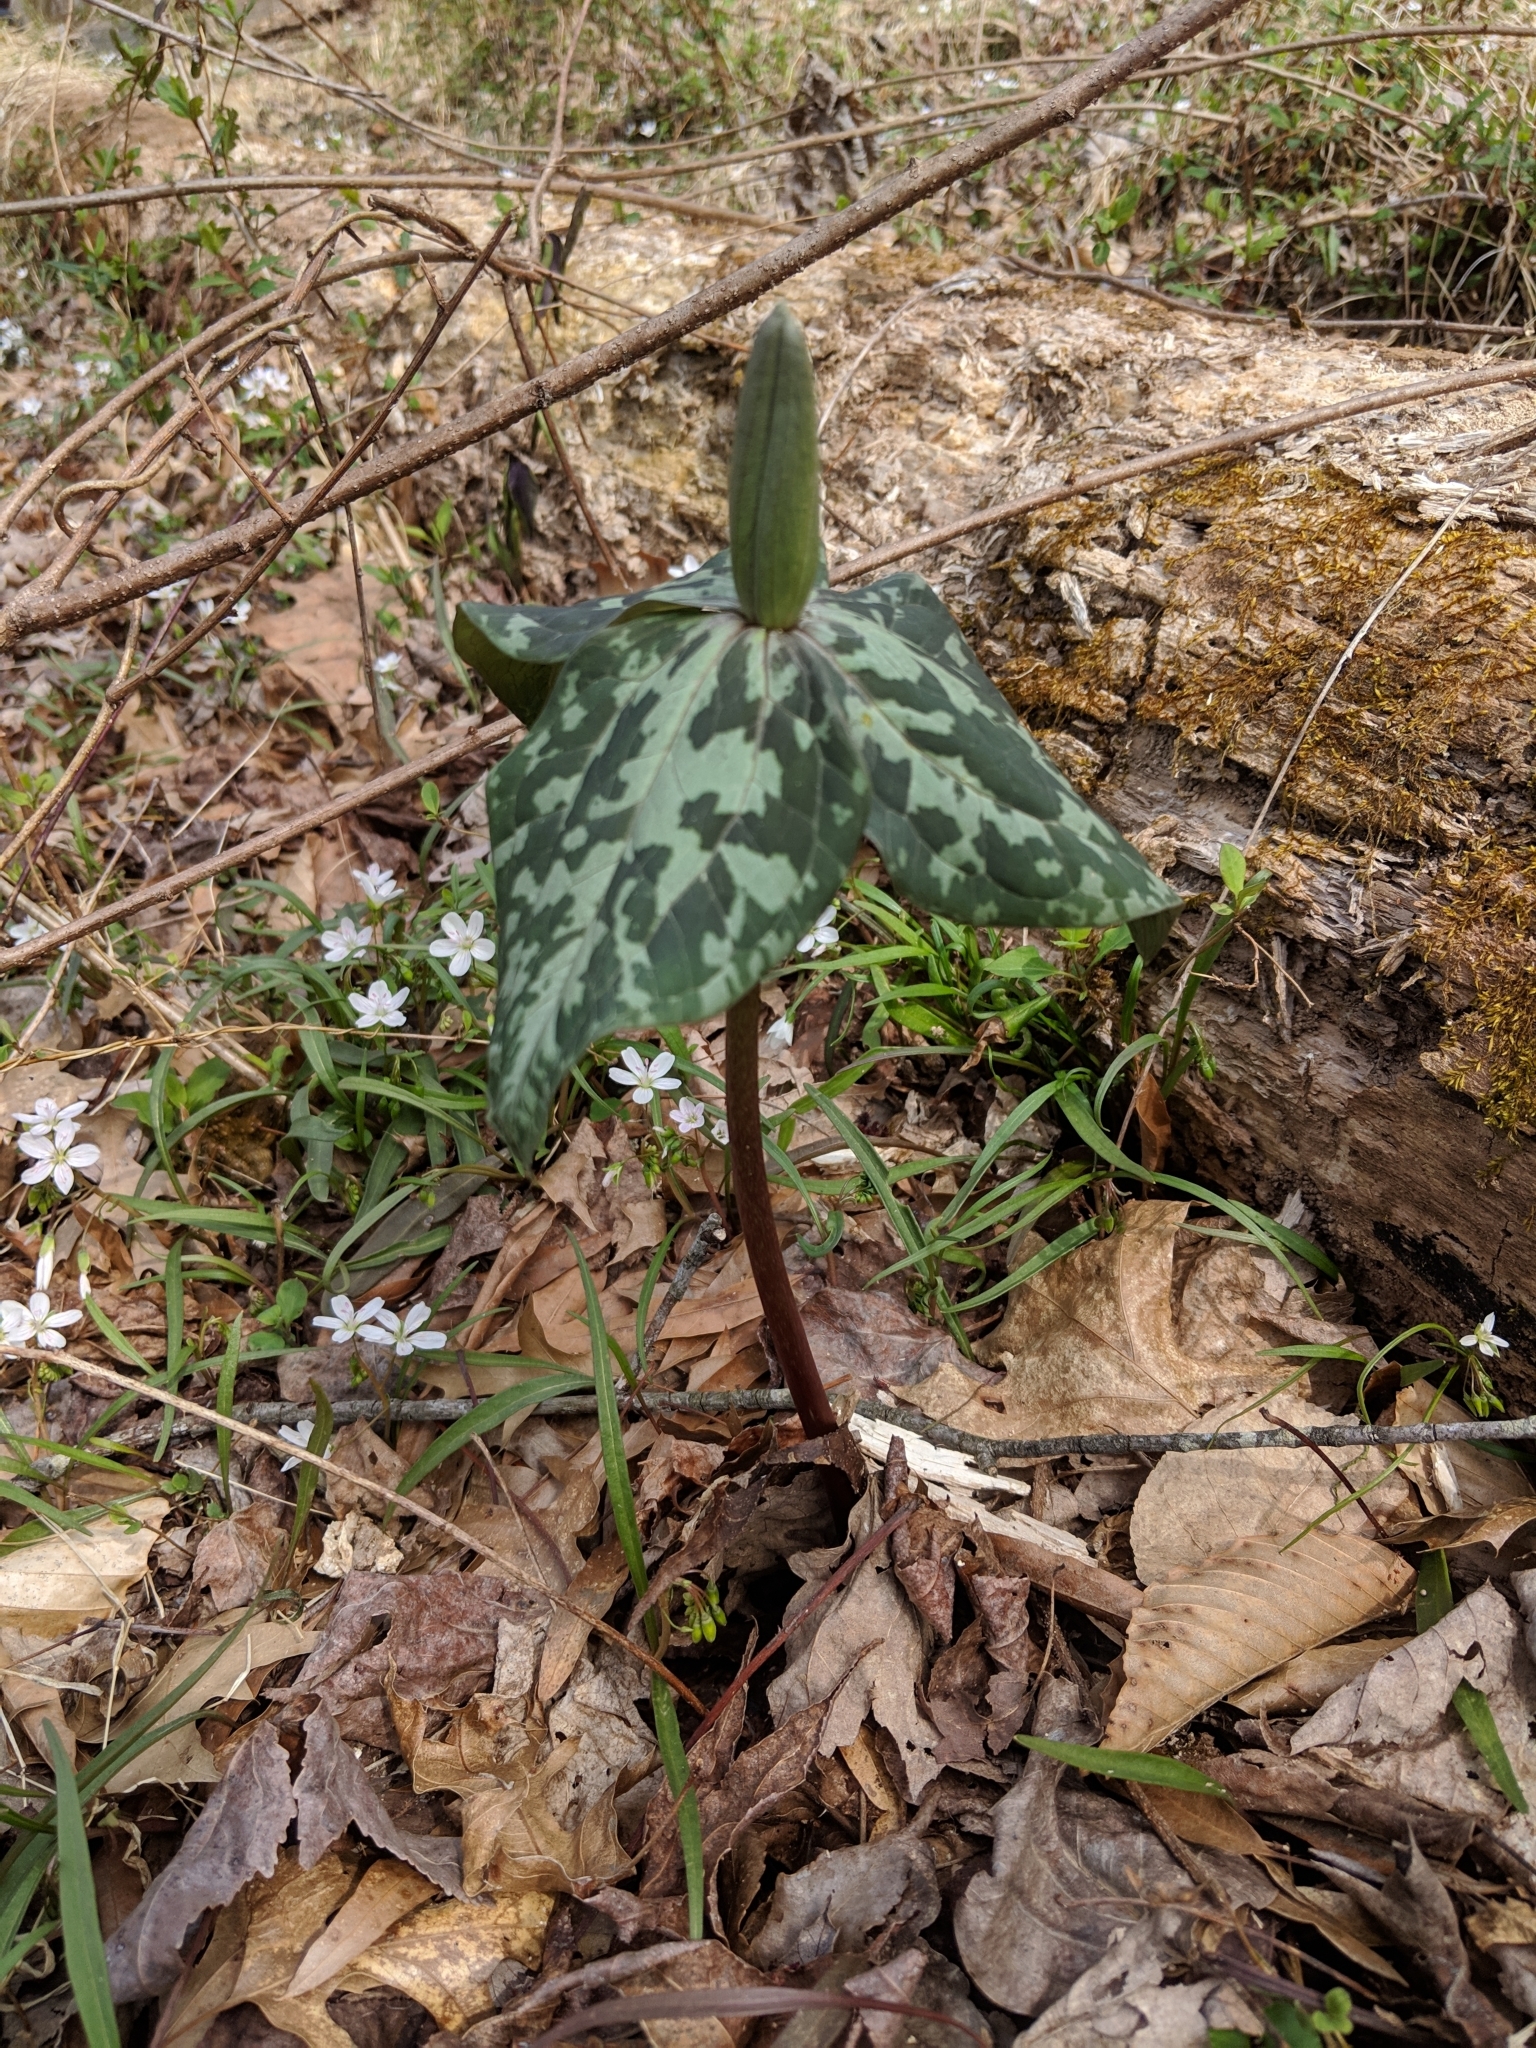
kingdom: Plantae
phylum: Tracheophyta
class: Liliopsida
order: Liliales
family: Melanthiaceae
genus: Trillium
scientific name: Trillium cuneatum
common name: Cuneate trillium
